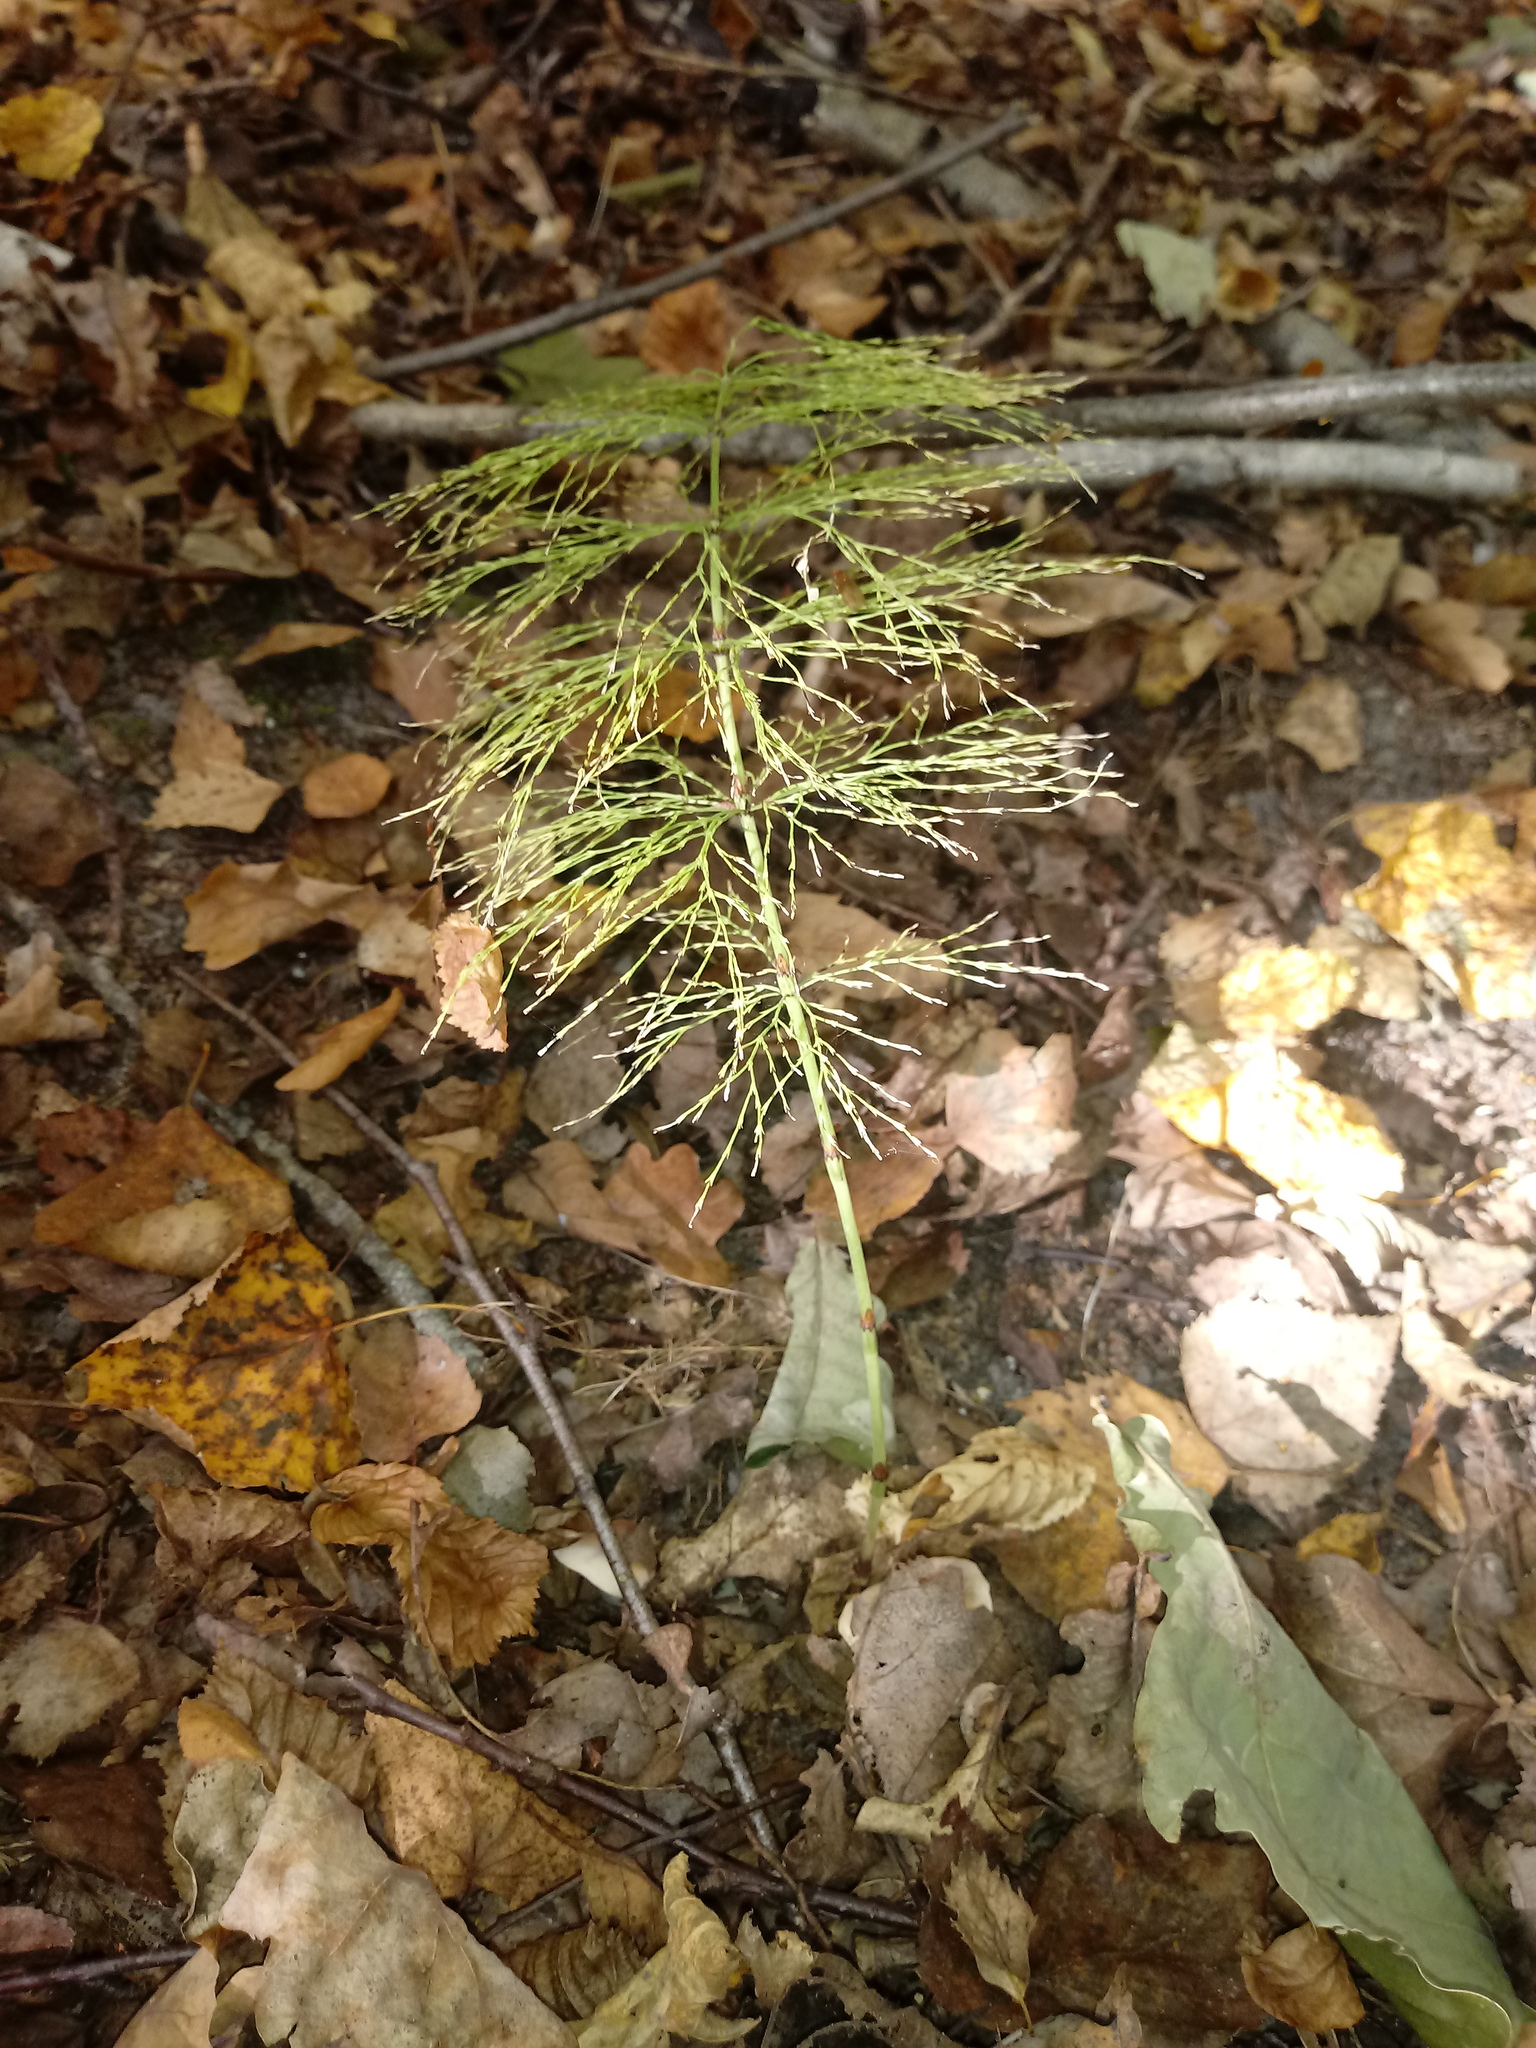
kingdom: Plantae
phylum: Tracheophyta
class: Polypodiopsida
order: Equisetales
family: Equisetaceae
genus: Equisetum
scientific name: Equisetum sylvaticum
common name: Wood horsetail
